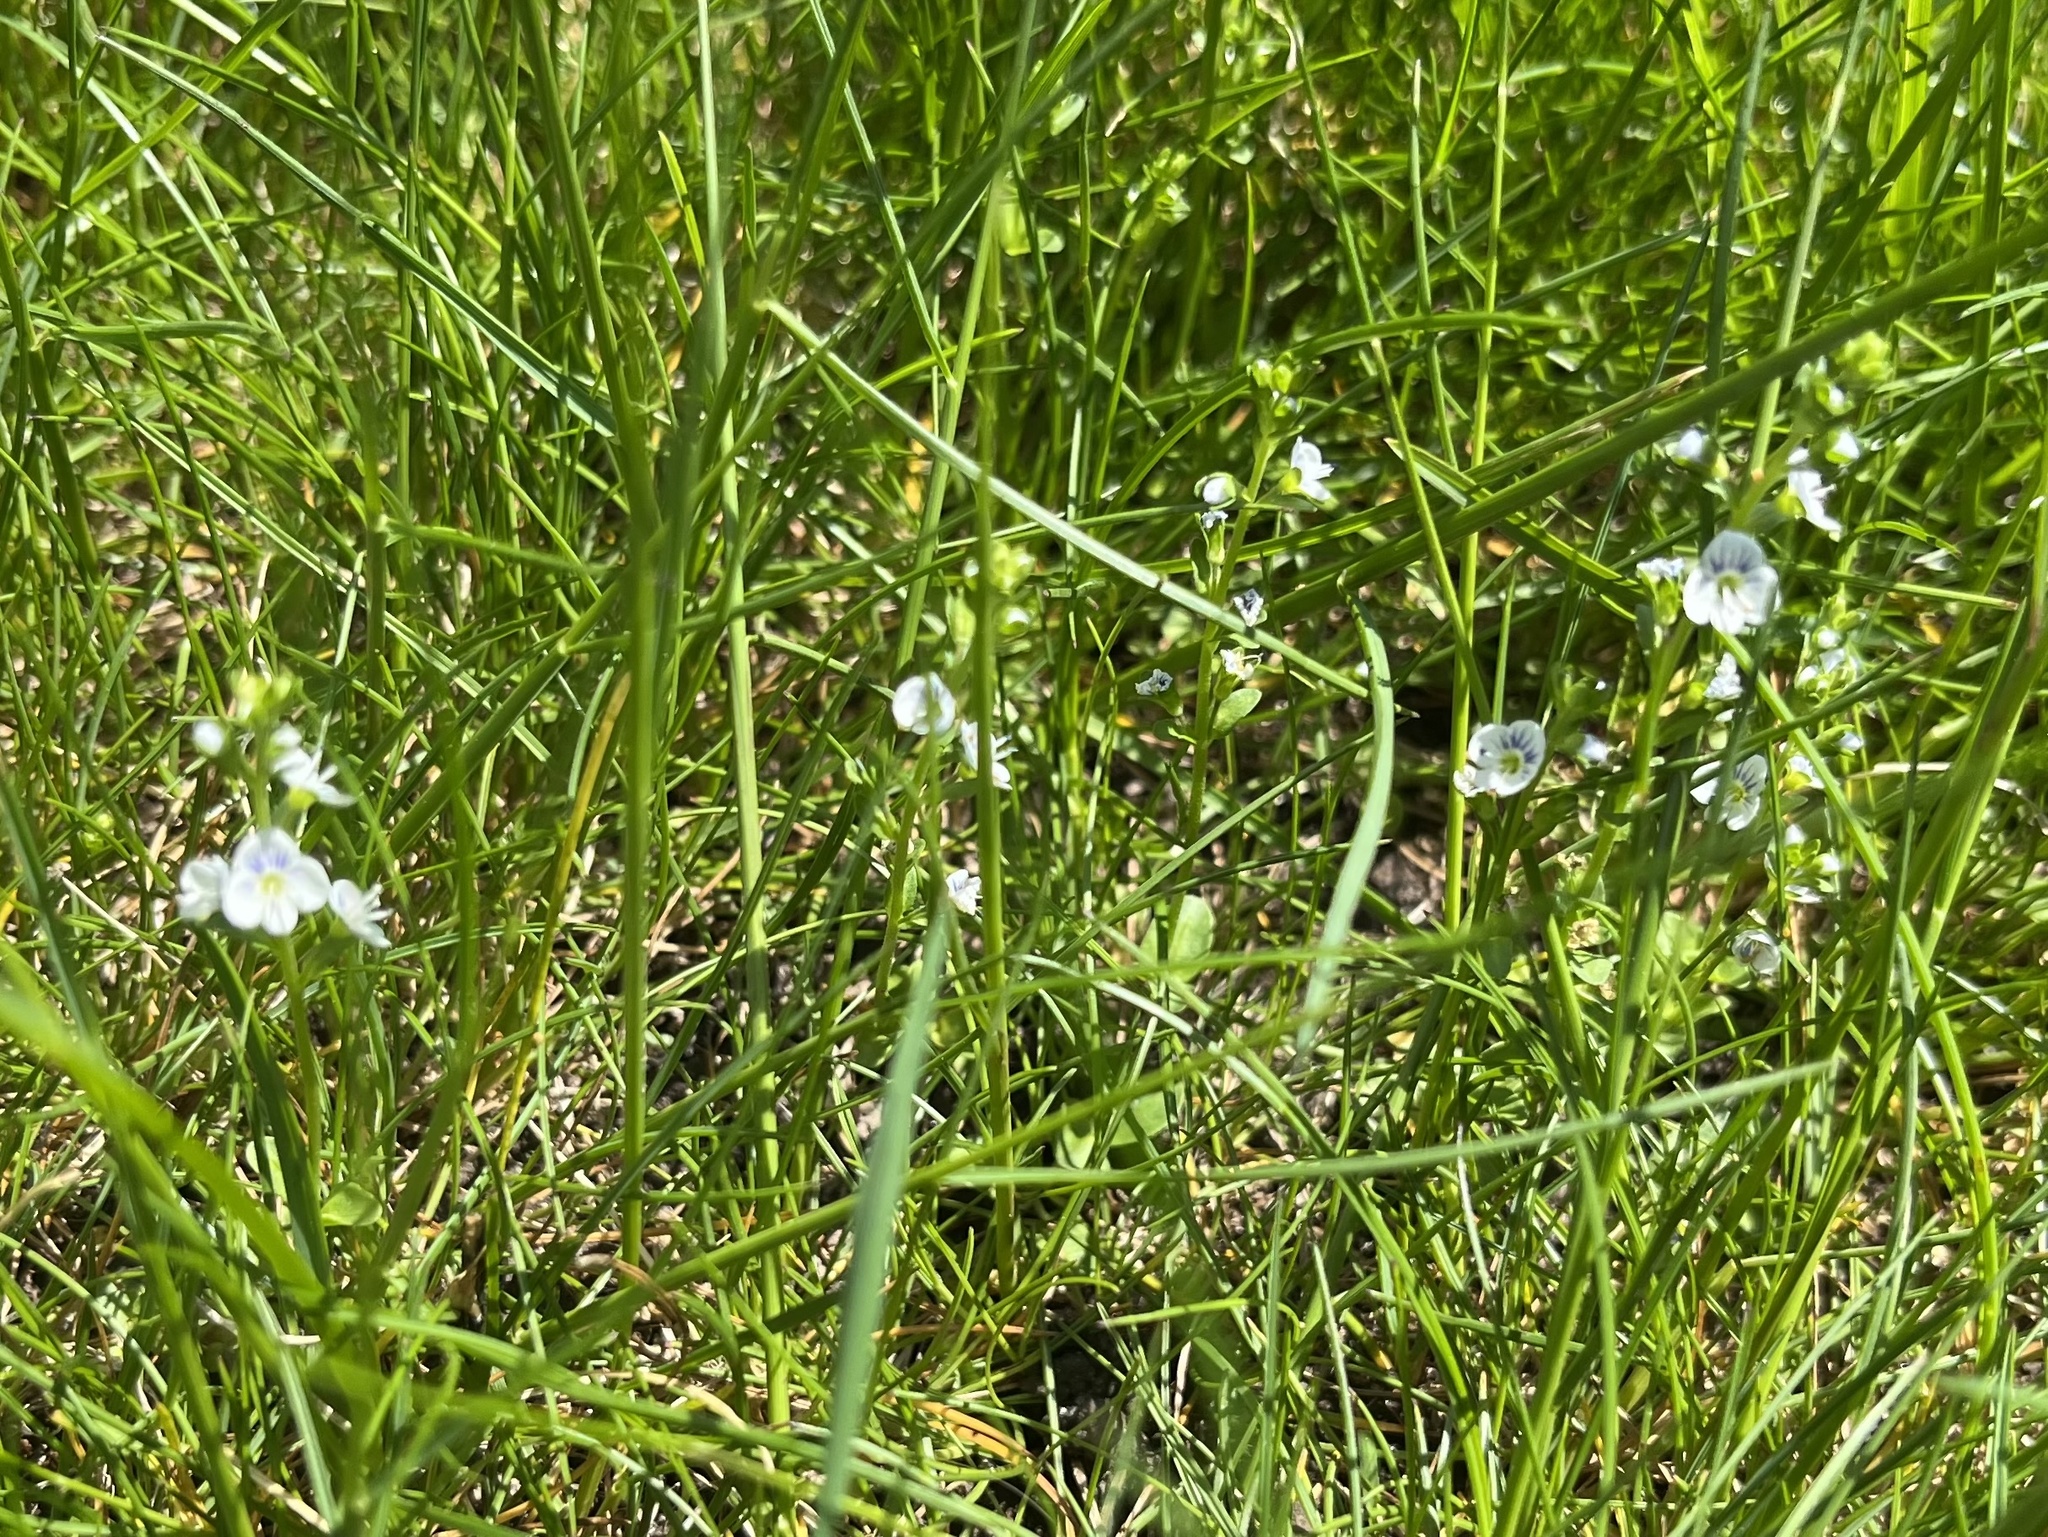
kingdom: Plantae
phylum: Tracheophyta
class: Magnoliopsida
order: Lamiales
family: Plantaginaceae
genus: Veronica
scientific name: Veronica serpyllifolia
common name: Thyme-leaved speedwell
